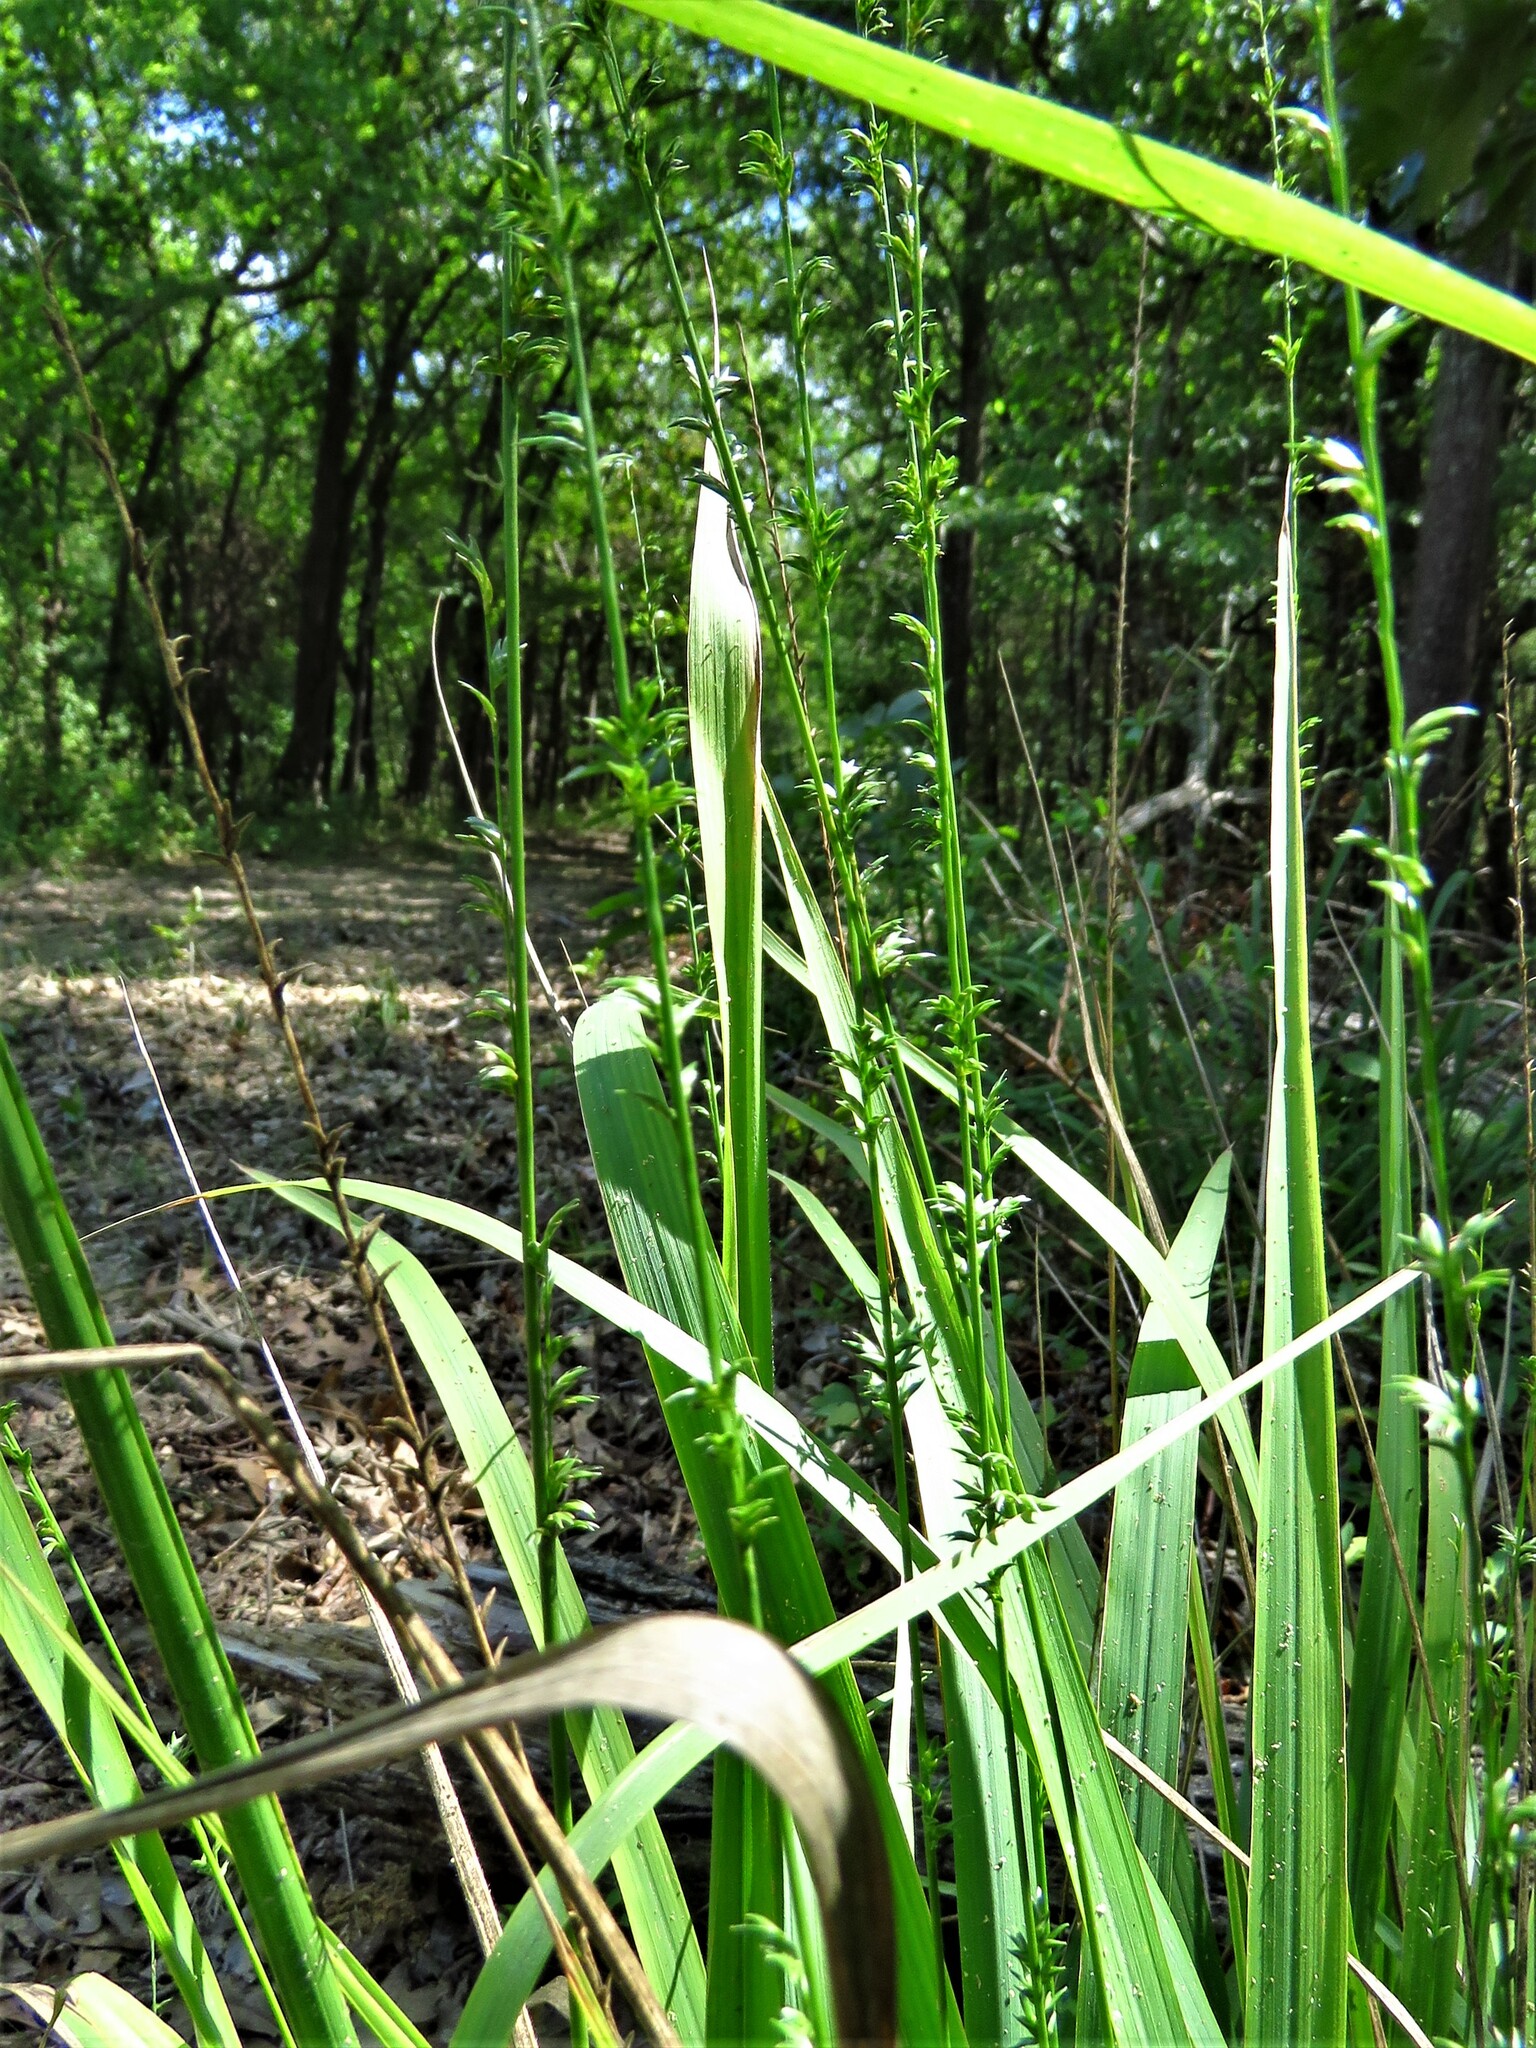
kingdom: Plantae
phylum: Tracheophyta
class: Liliopsida
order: Poales
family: Poaceae
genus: Chasmanthium
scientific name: Chasmanthium laxum
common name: Slender chasmanthium
